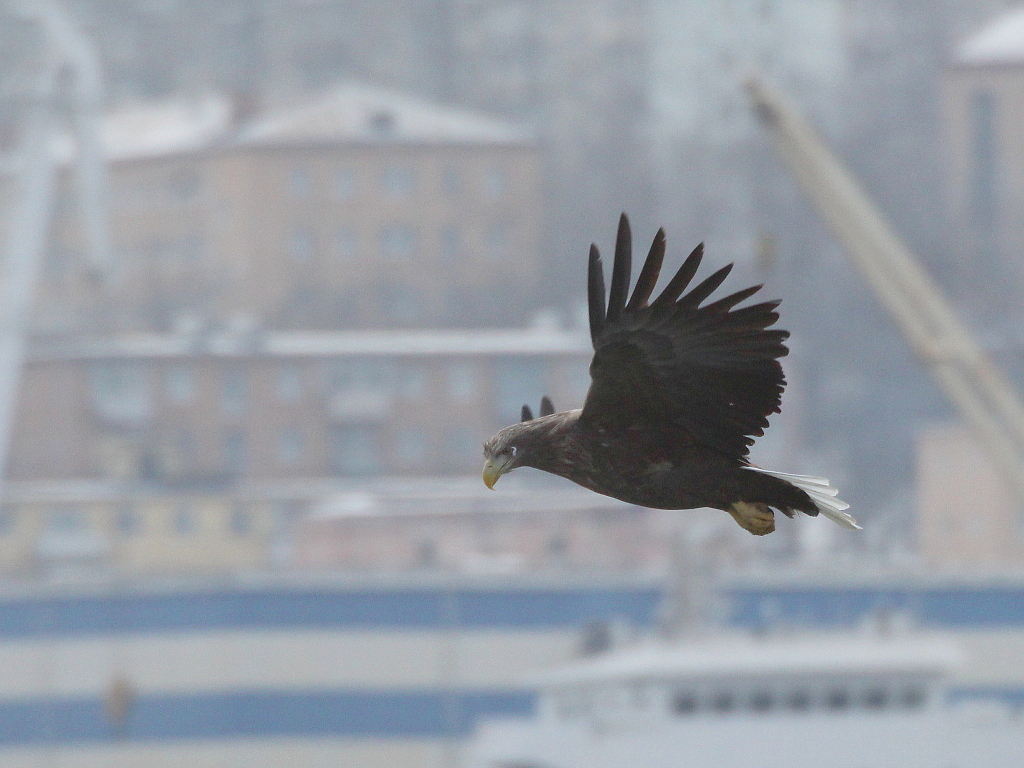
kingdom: Animalia
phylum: Chordata
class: Aves
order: Accipitriformes
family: Accipitridae
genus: Haliaeetus
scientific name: Haliaeetus albicilla
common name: White-tailed eagle
